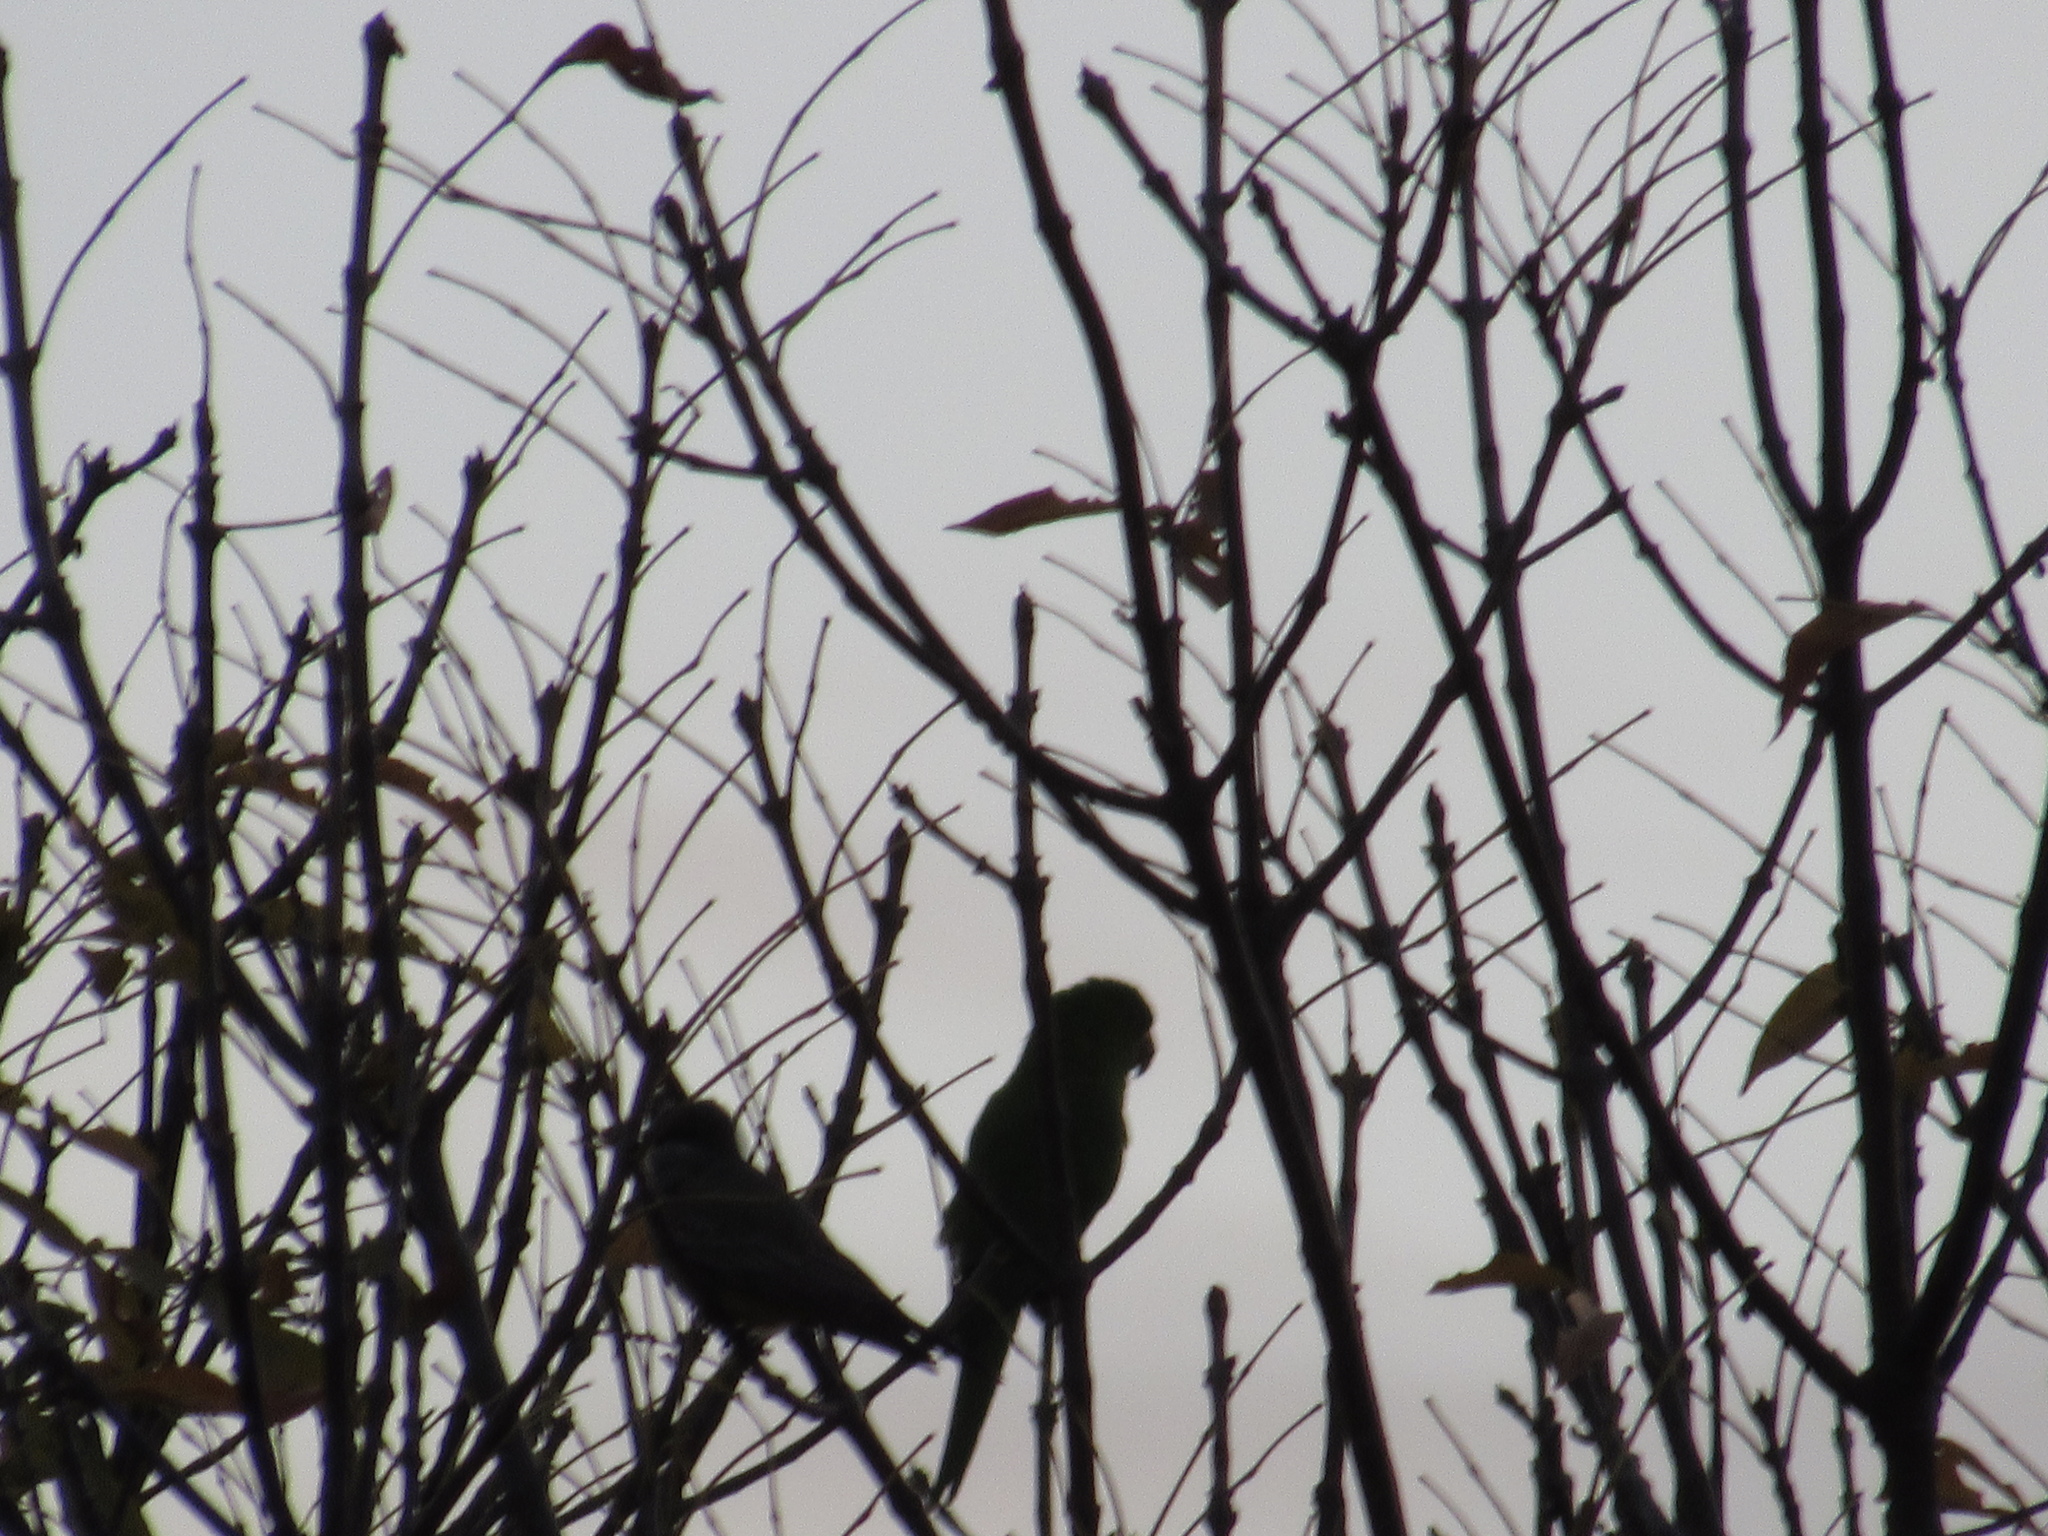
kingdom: Animalia
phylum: Chordata
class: Aves
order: Psittaciformes
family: Psittacidae
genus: Aratinga
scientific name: Aratinga holochlora
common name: Green parakeet
